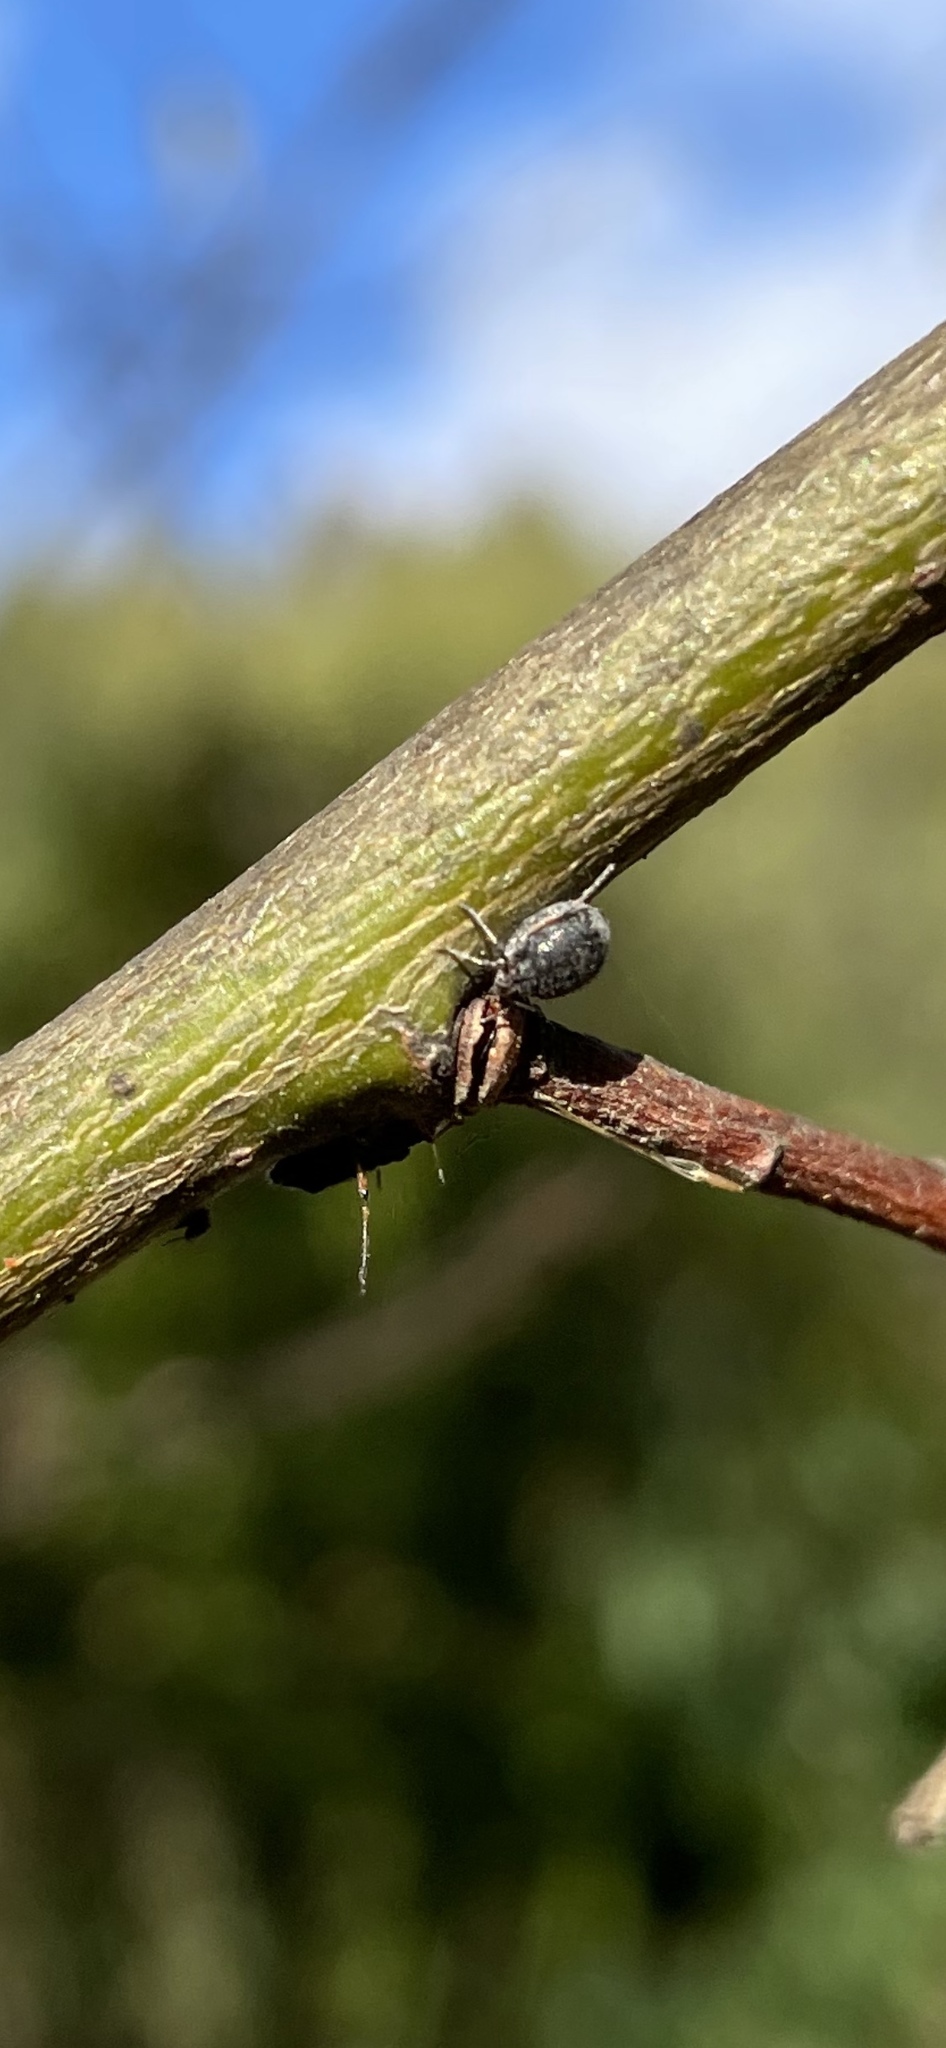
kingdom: Animalia
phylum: Arthropoda
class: Insecta
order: Hymenoptera
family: Braconidae
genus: Pauesia
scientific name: Pauesia nigrovaria
